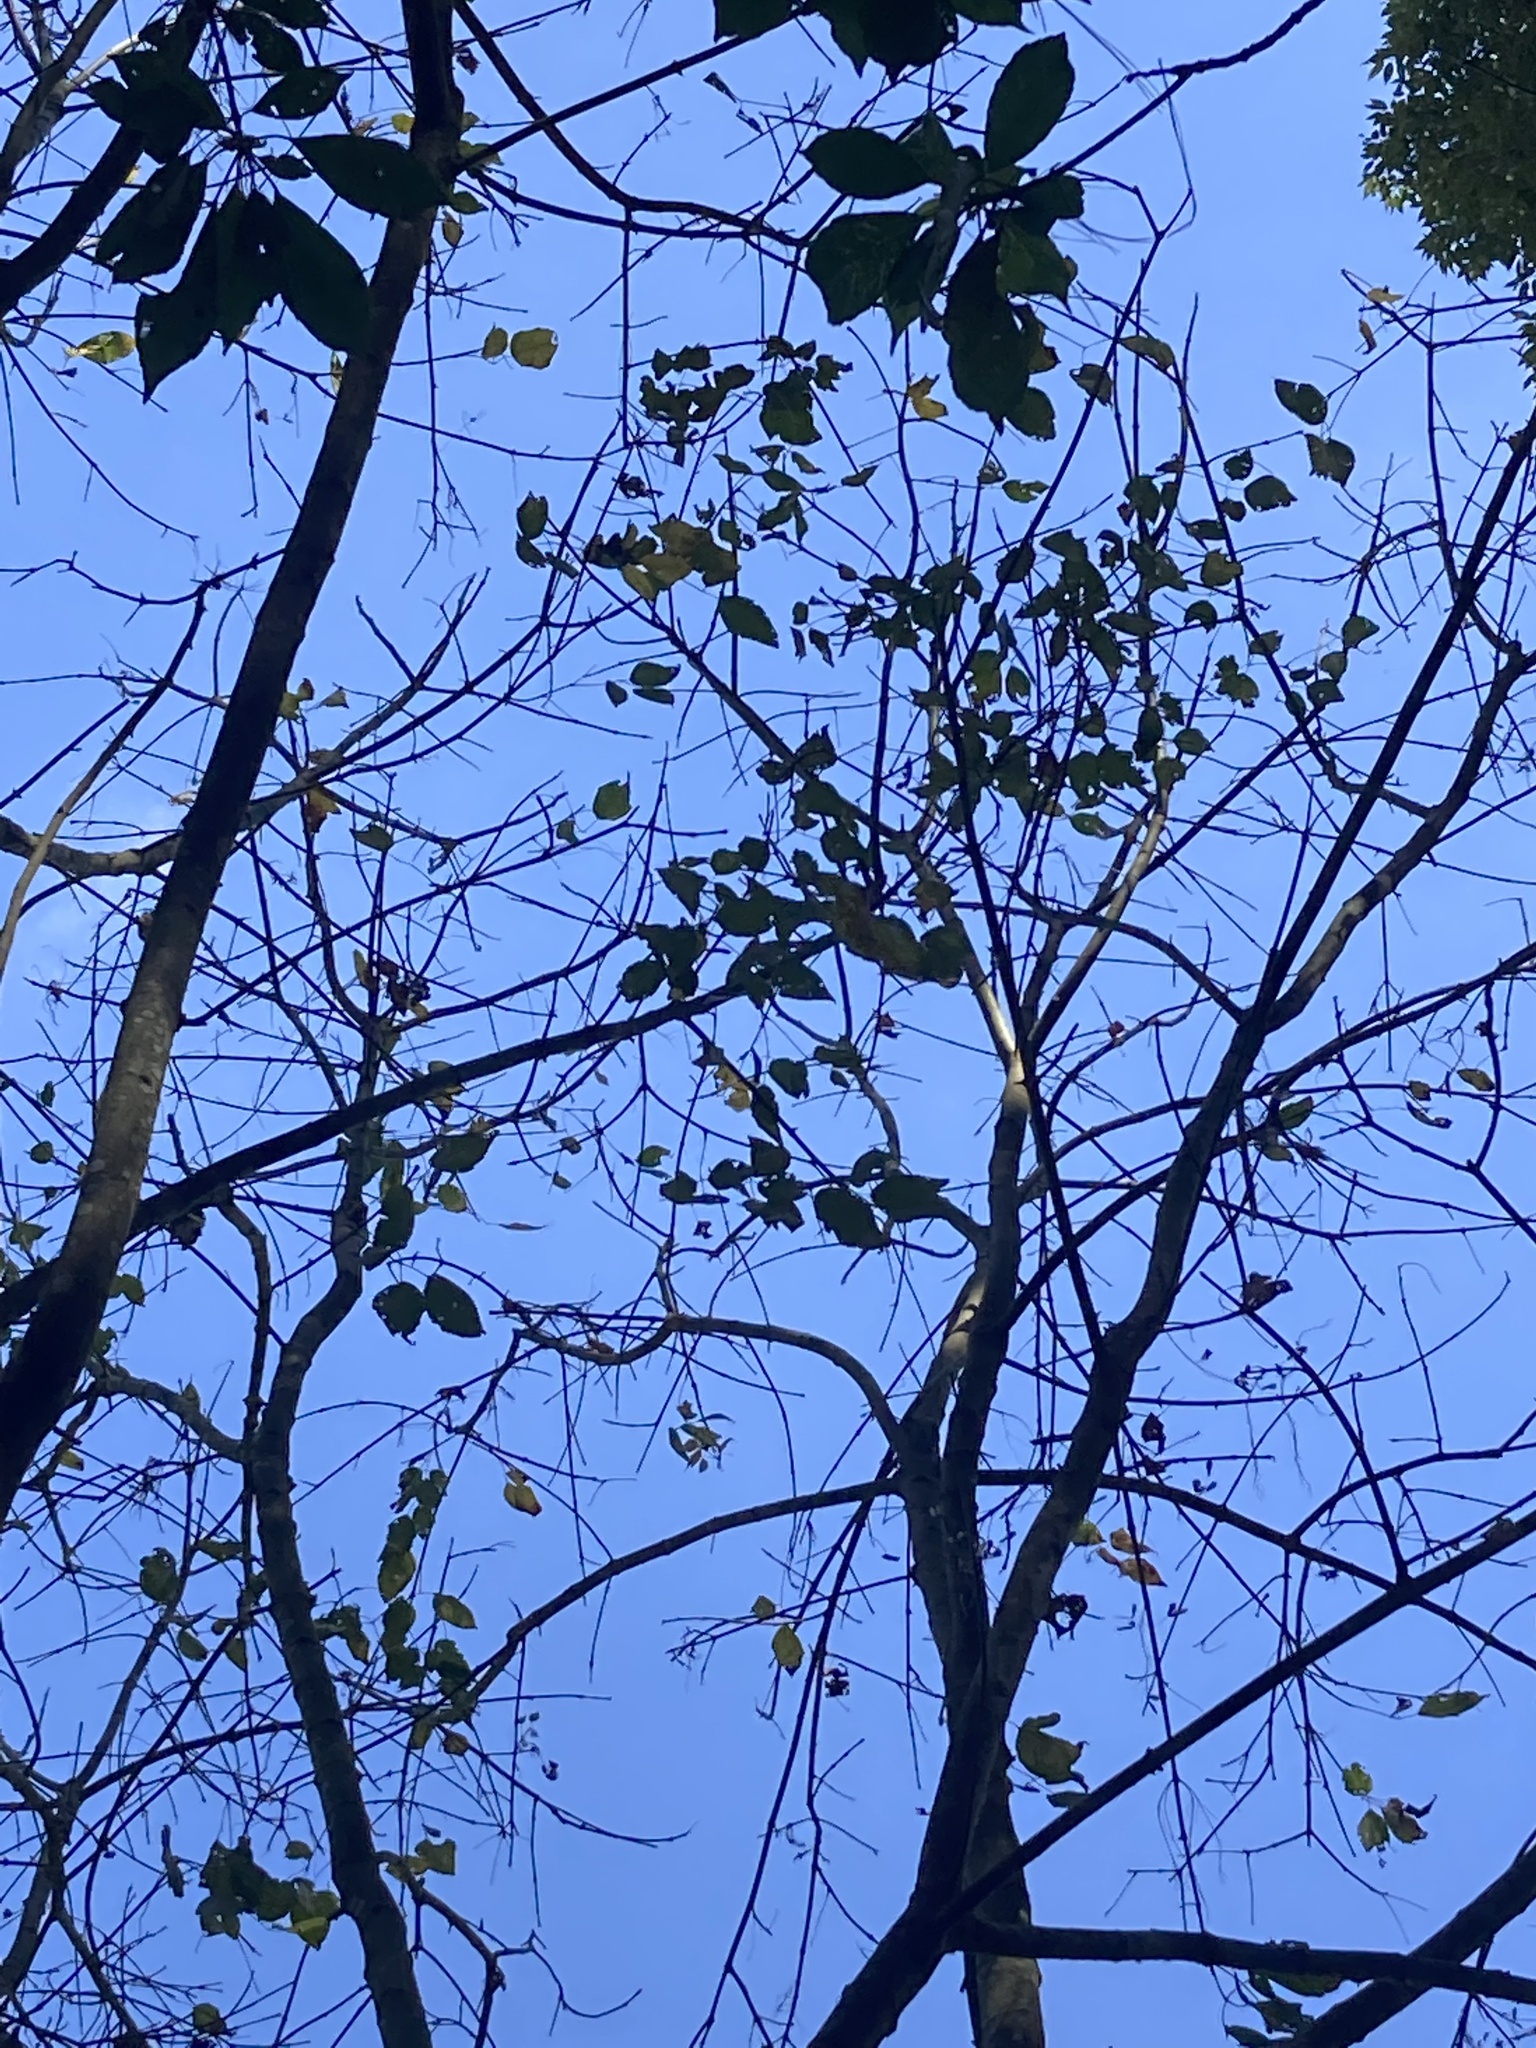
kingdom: Plantae
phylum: Tracheophyta
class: Magnoliopsida
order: Sapindales
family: Sapindaceae
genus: Acer
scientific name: Acer negundo
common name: Ashleaf maple
